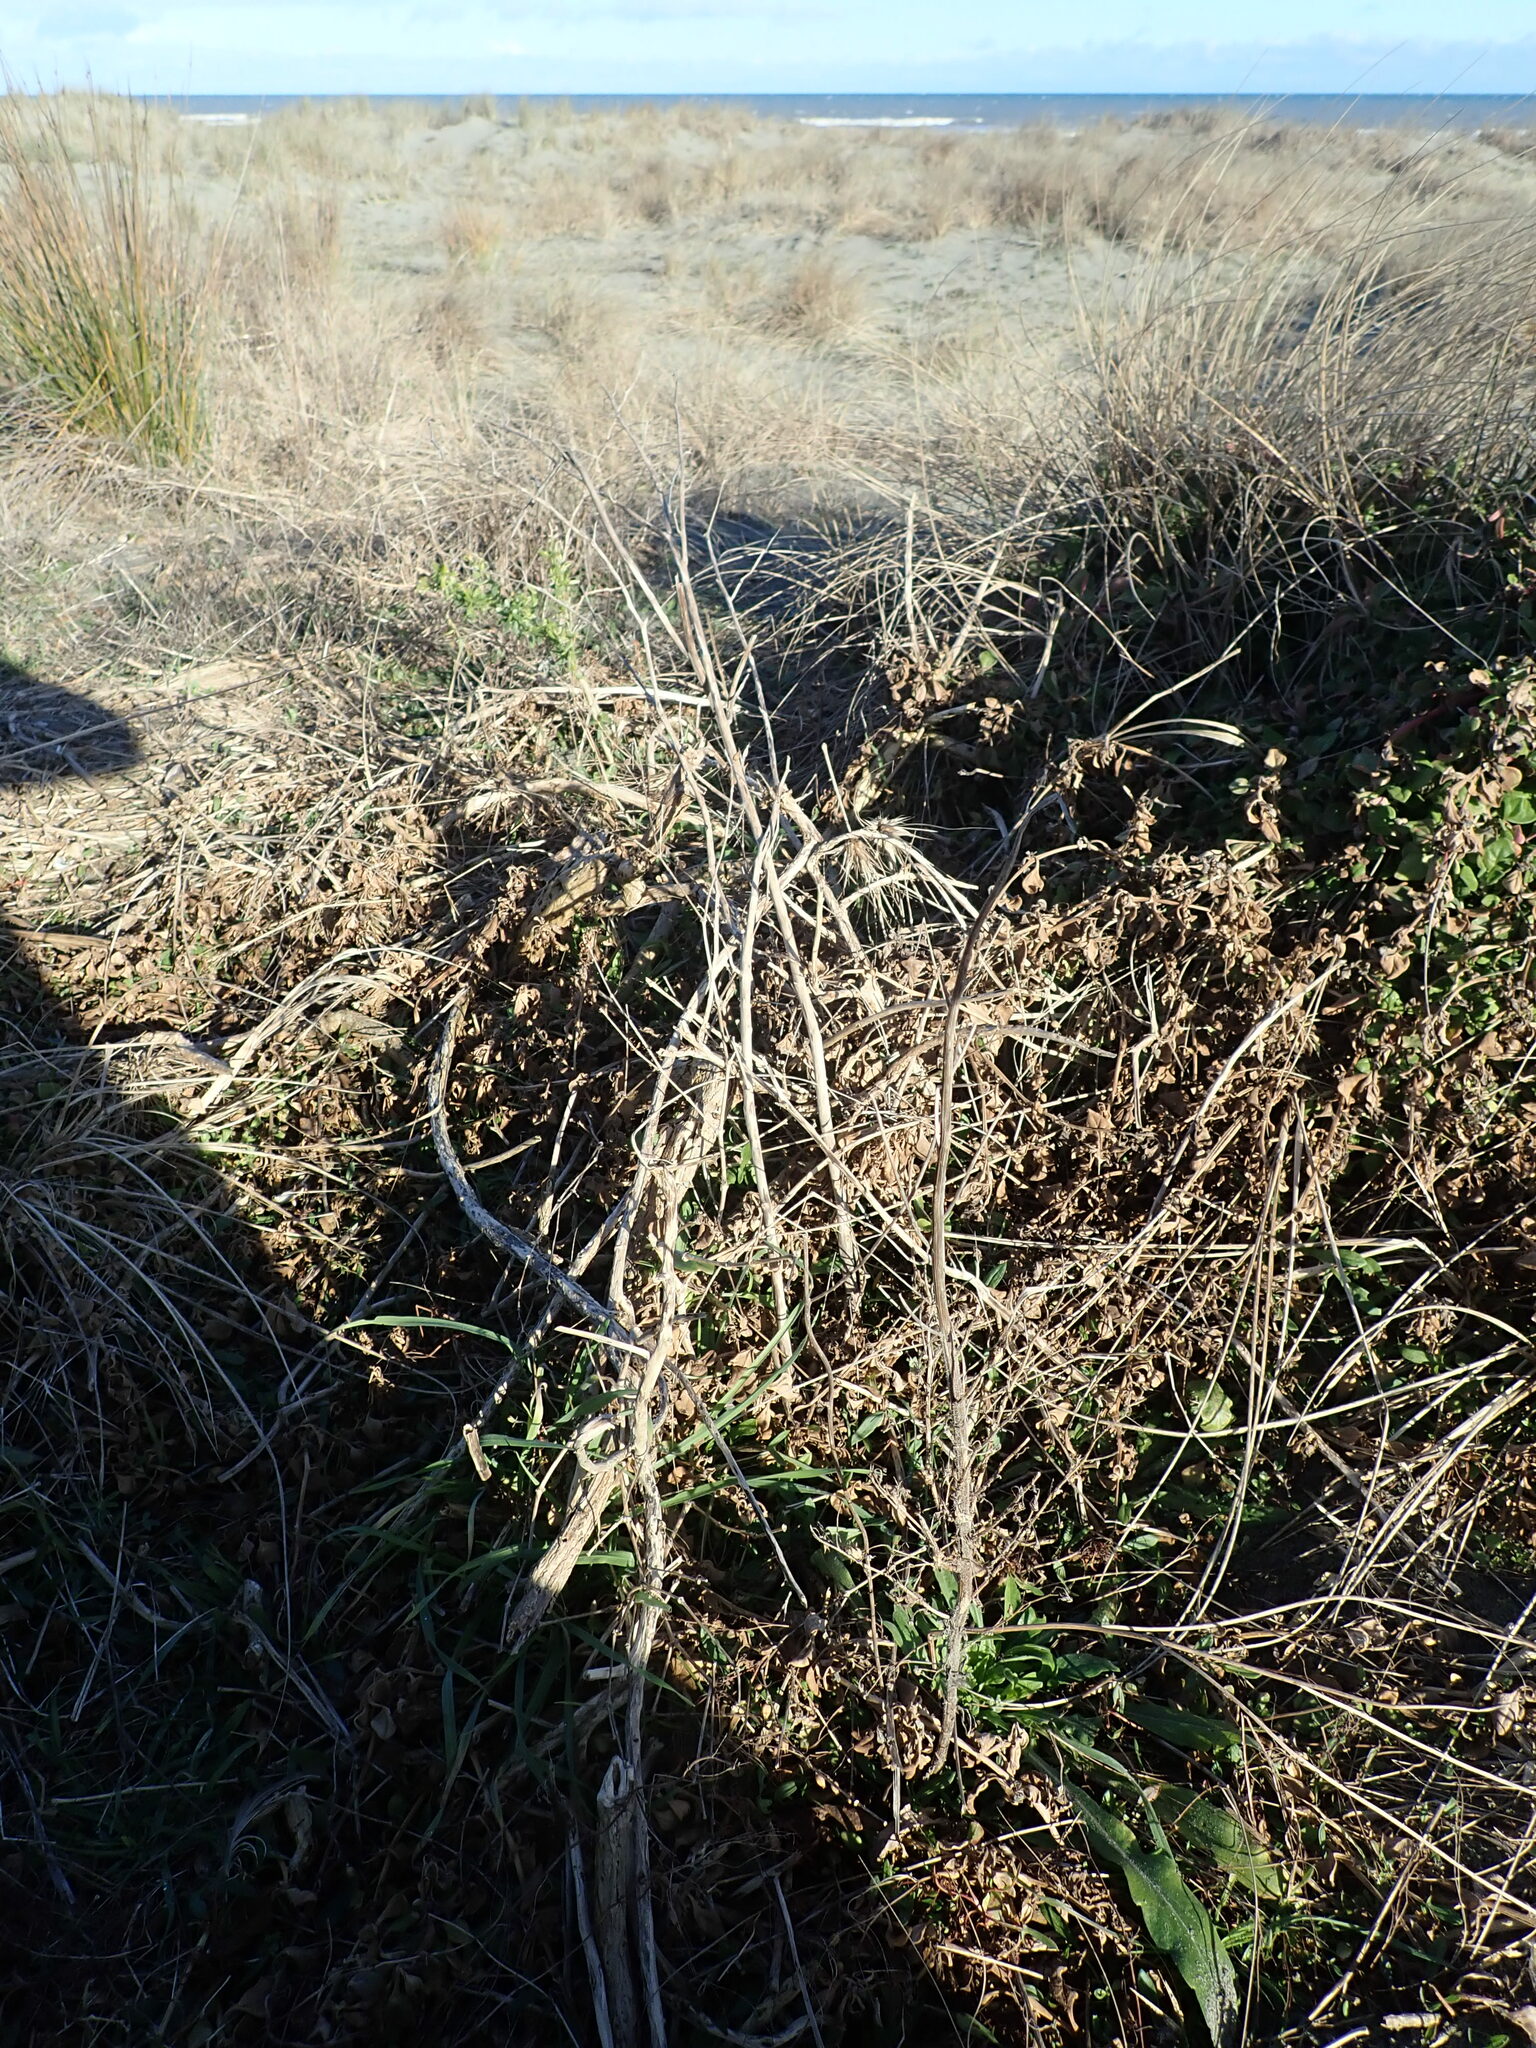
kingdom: Plantae
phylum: Tracheophyta
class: Magnoliopsida
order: Caryophyllales
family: Aizoaceae
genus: Tetragonia
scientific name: Tetragonia tetragonoides
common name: New zealand-spinach
